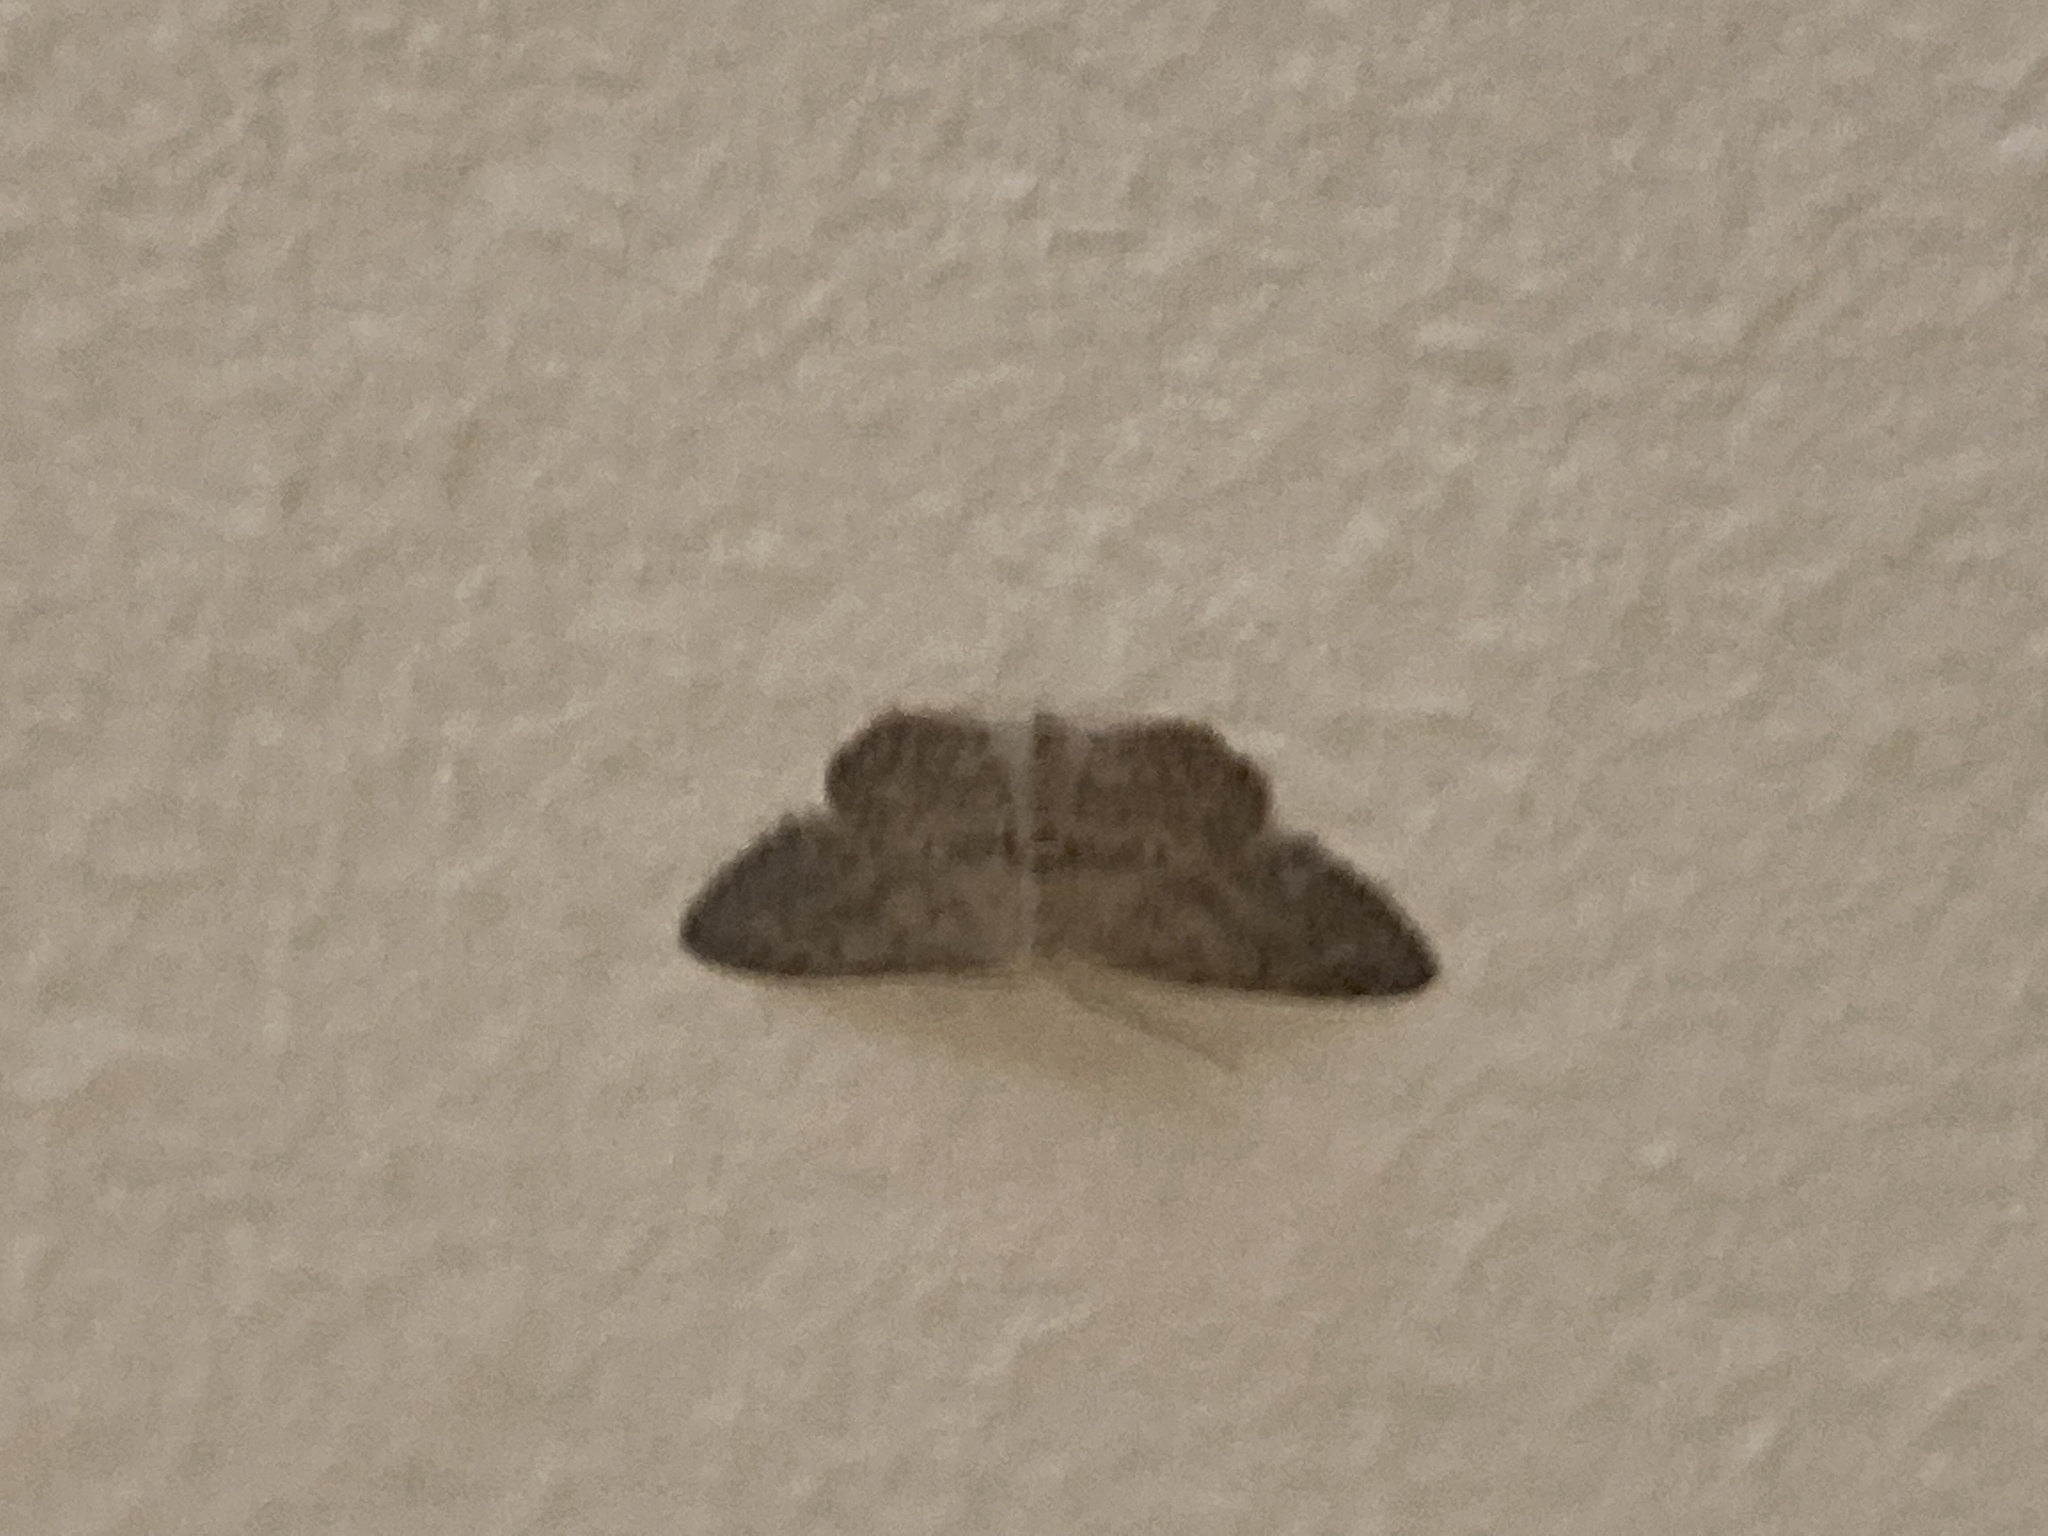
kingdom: Animalia
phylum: Arthropoda
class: Insecta
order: Lepidoptera
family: Geometridae
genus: Idaea
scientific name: Idaea seriata
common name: Small dusty wave
